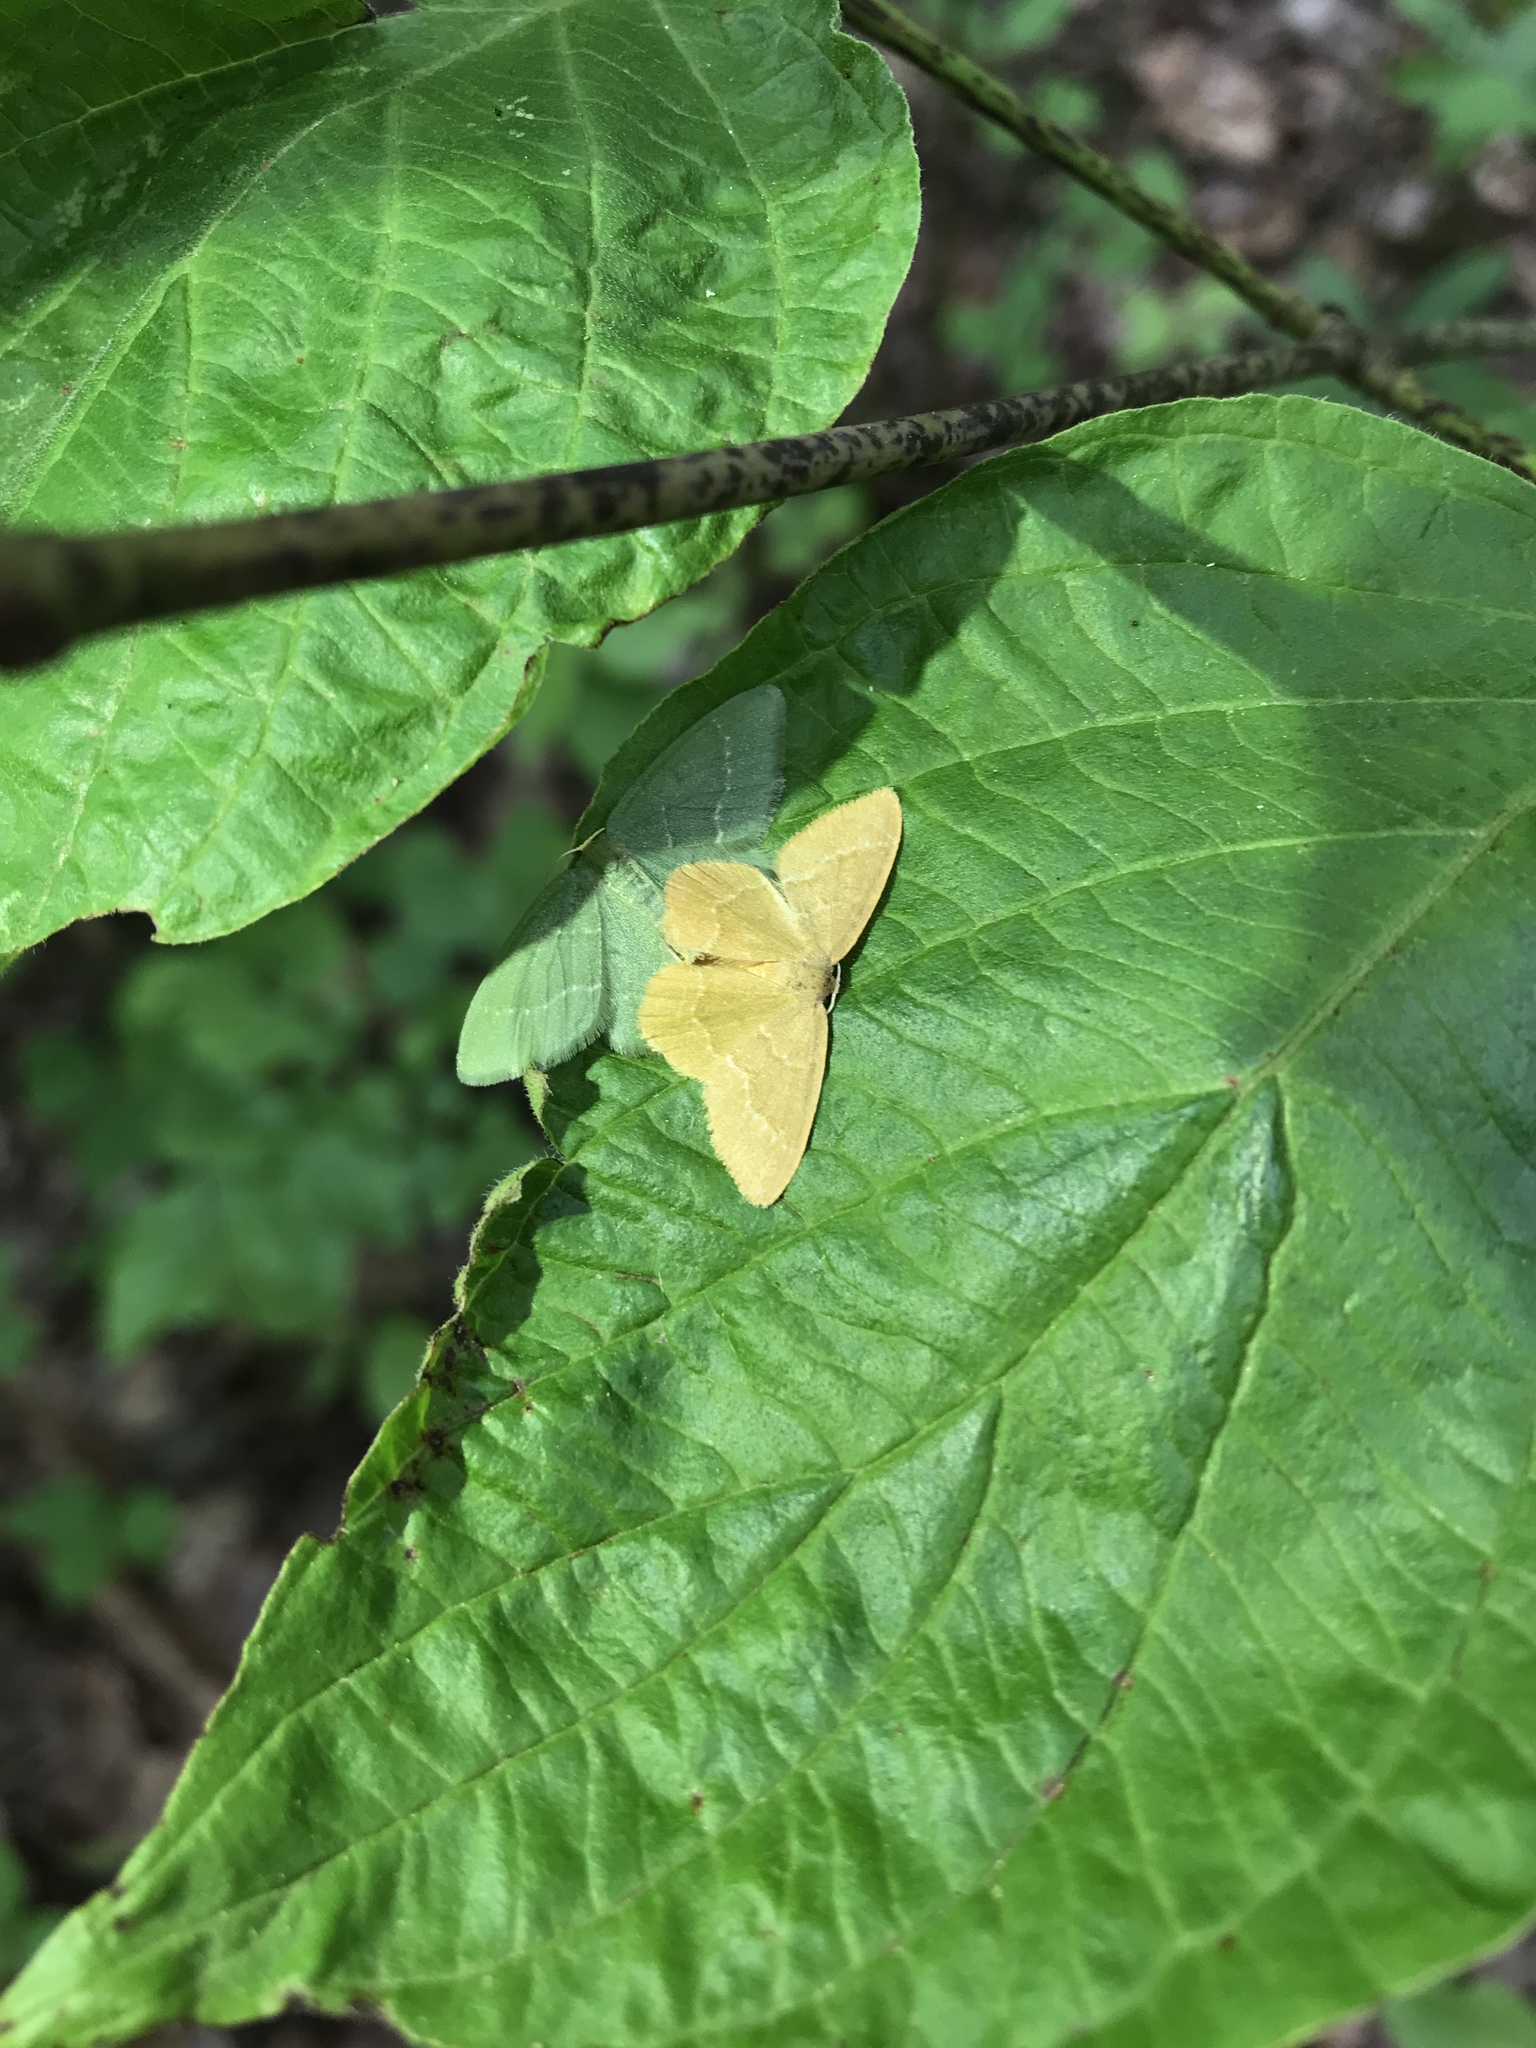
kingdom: Animalia
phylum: Arthropoda
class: Insecta
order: Lepidoptera
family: Geometridae
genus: Thalera
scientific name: Thalera pistasciaria
